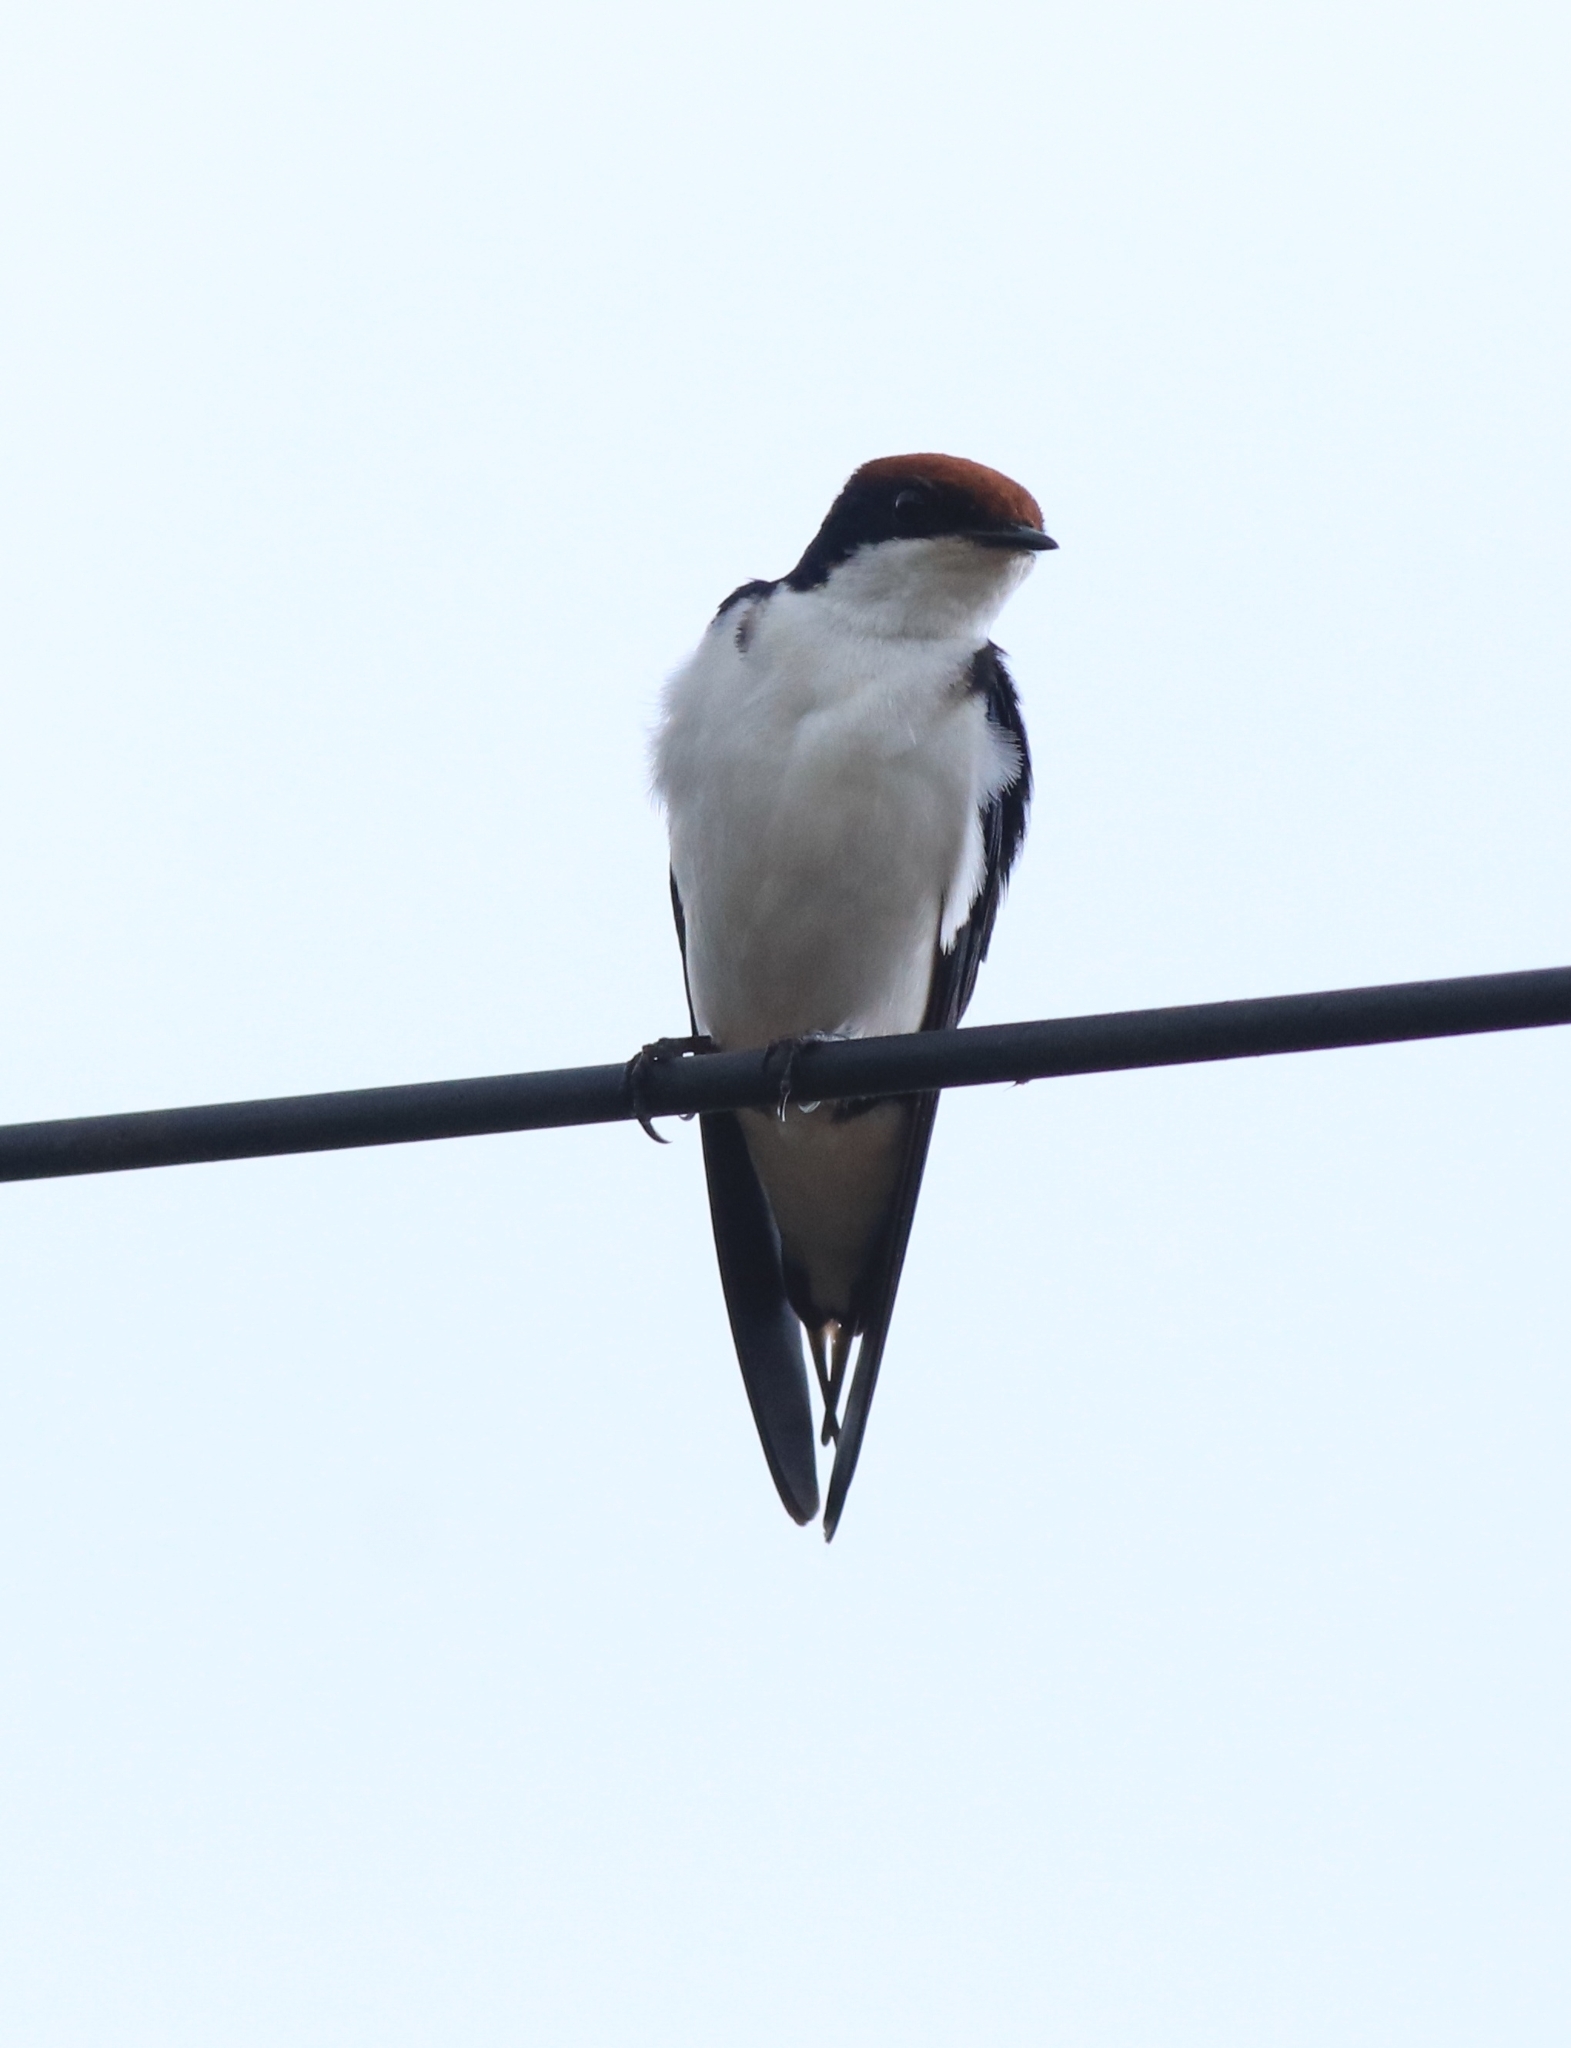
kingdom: Animalia
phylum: Chordata
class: Aves
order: Passeriformes
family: Hirundinidae
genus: Hirundo
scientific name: Hirundo smithii
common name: Wire-tailed swallow
